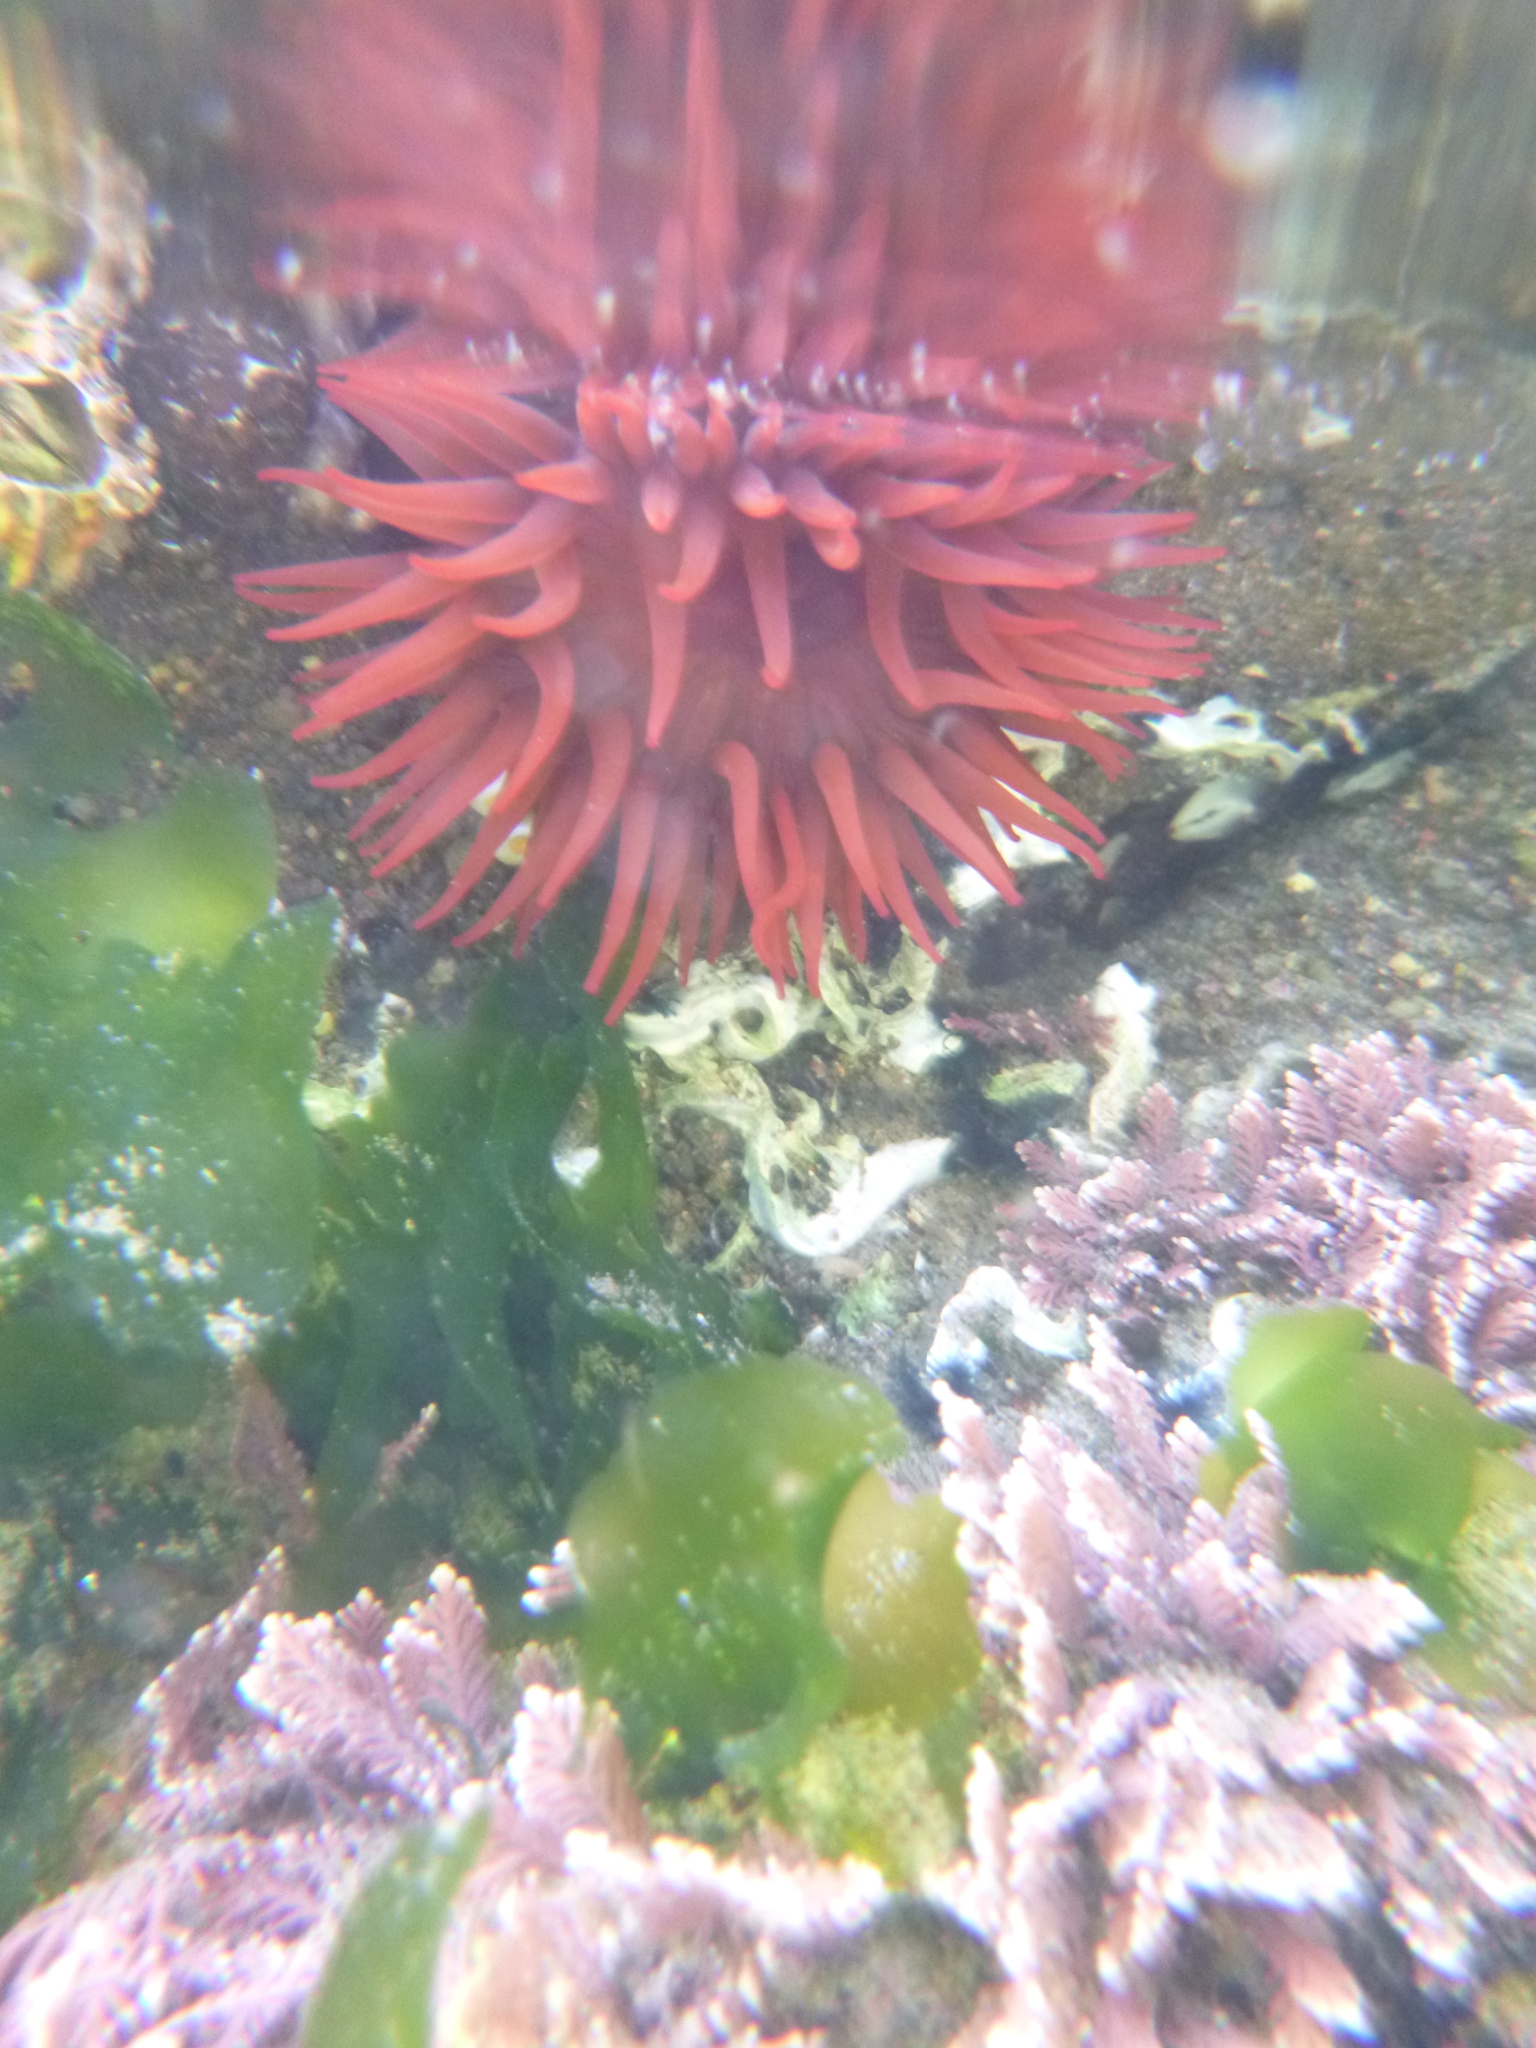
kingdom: Animalia
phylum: Cnidaria
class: Anthozoa
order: Actiniaria
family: Actiniidae
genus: Actinia
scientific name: Actinia tenebrosa
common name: Waratah anemone
